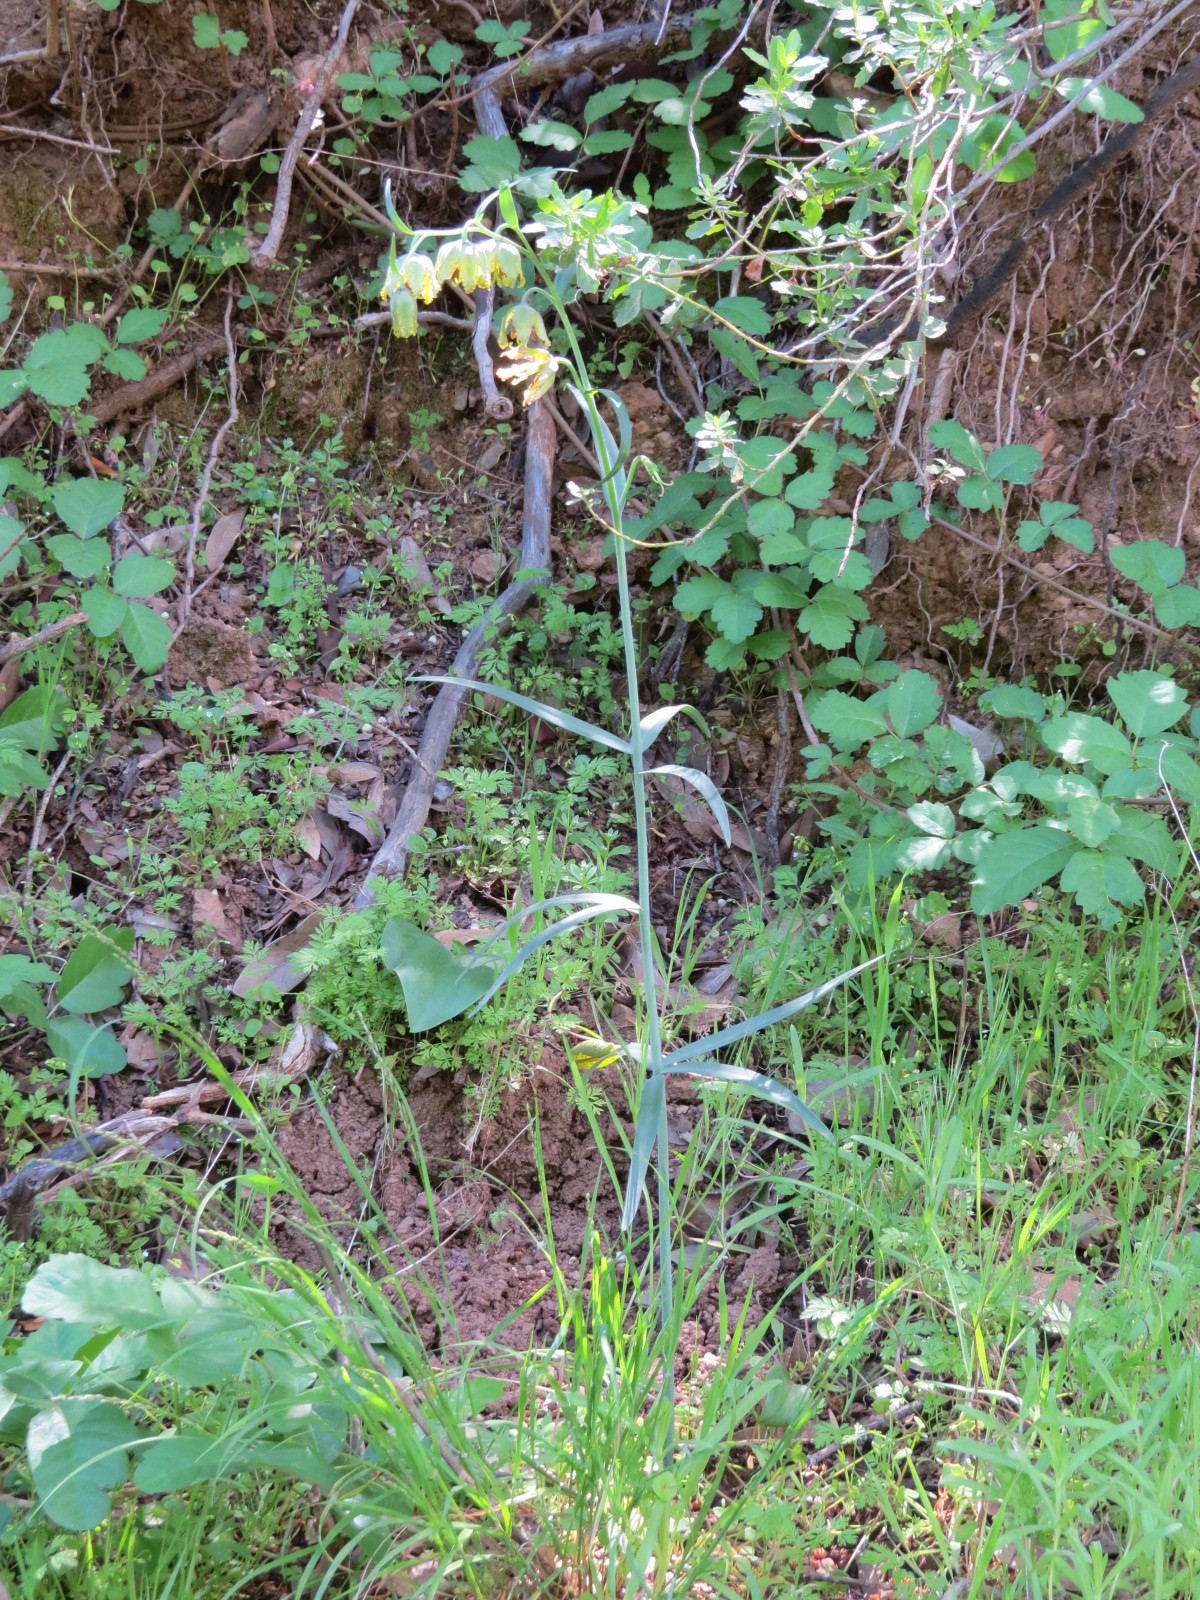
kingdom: Plantae
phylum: Tracheophyta
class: Liliopsida
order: Liliales
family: Liliaceae
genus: Fritillaria
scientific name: Fritillaria affinis
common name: Ojai fritillary
